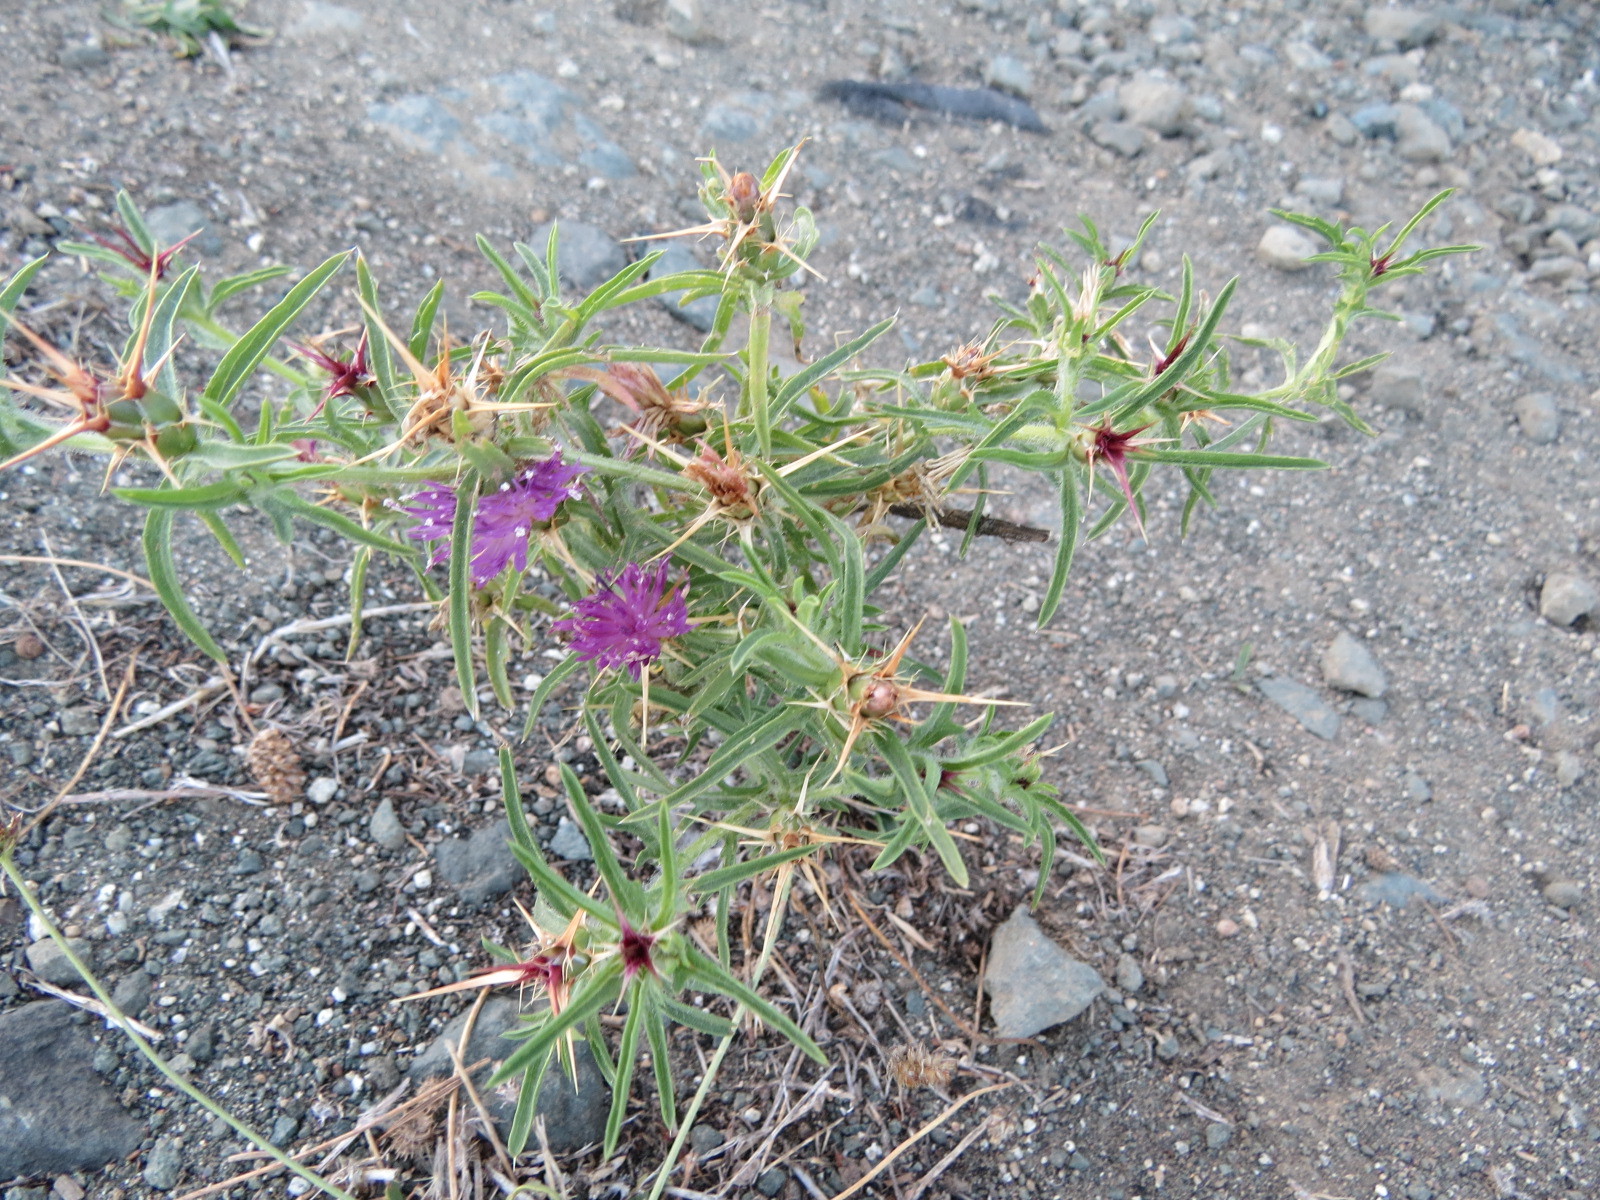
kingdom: Plantae
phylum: Tracheophyta
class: Magnoliopsida
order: Asterales
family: Asteraceae
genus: Centaurea
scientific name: Centaurea calcitrapa
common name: Red star-thistle
